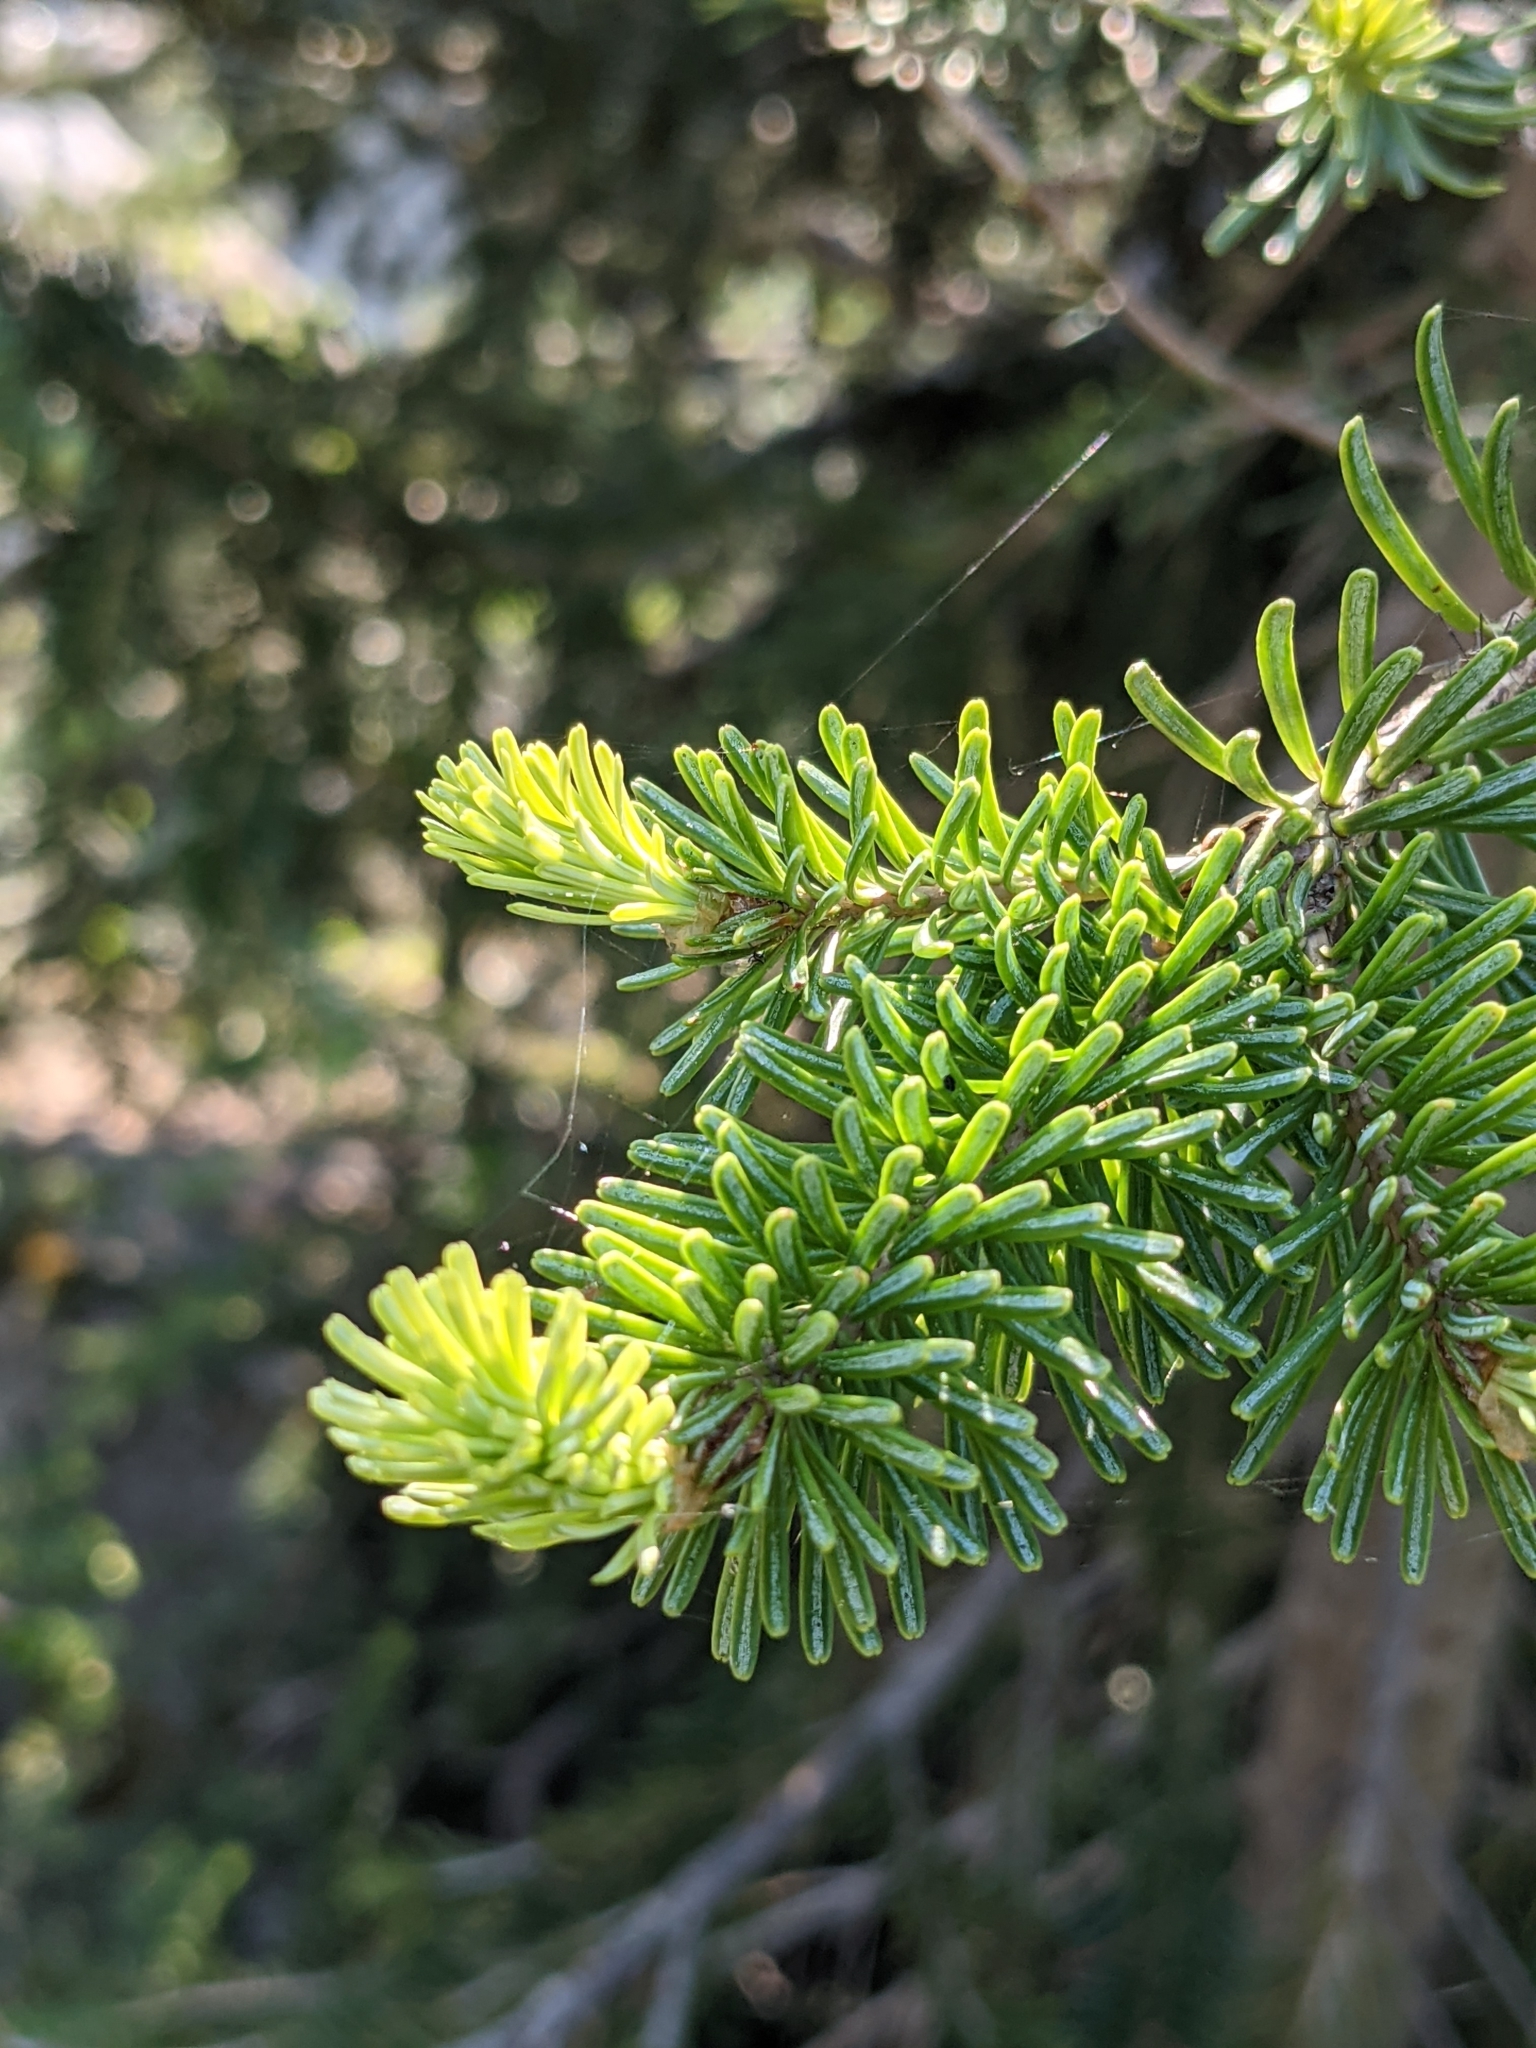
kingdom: Plantae
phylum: Tracheophyta
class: Pinopsida
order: Pinales
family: Pinaceae
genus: Abies
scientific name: Abies lasiocarpa
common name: Subalpine fir
